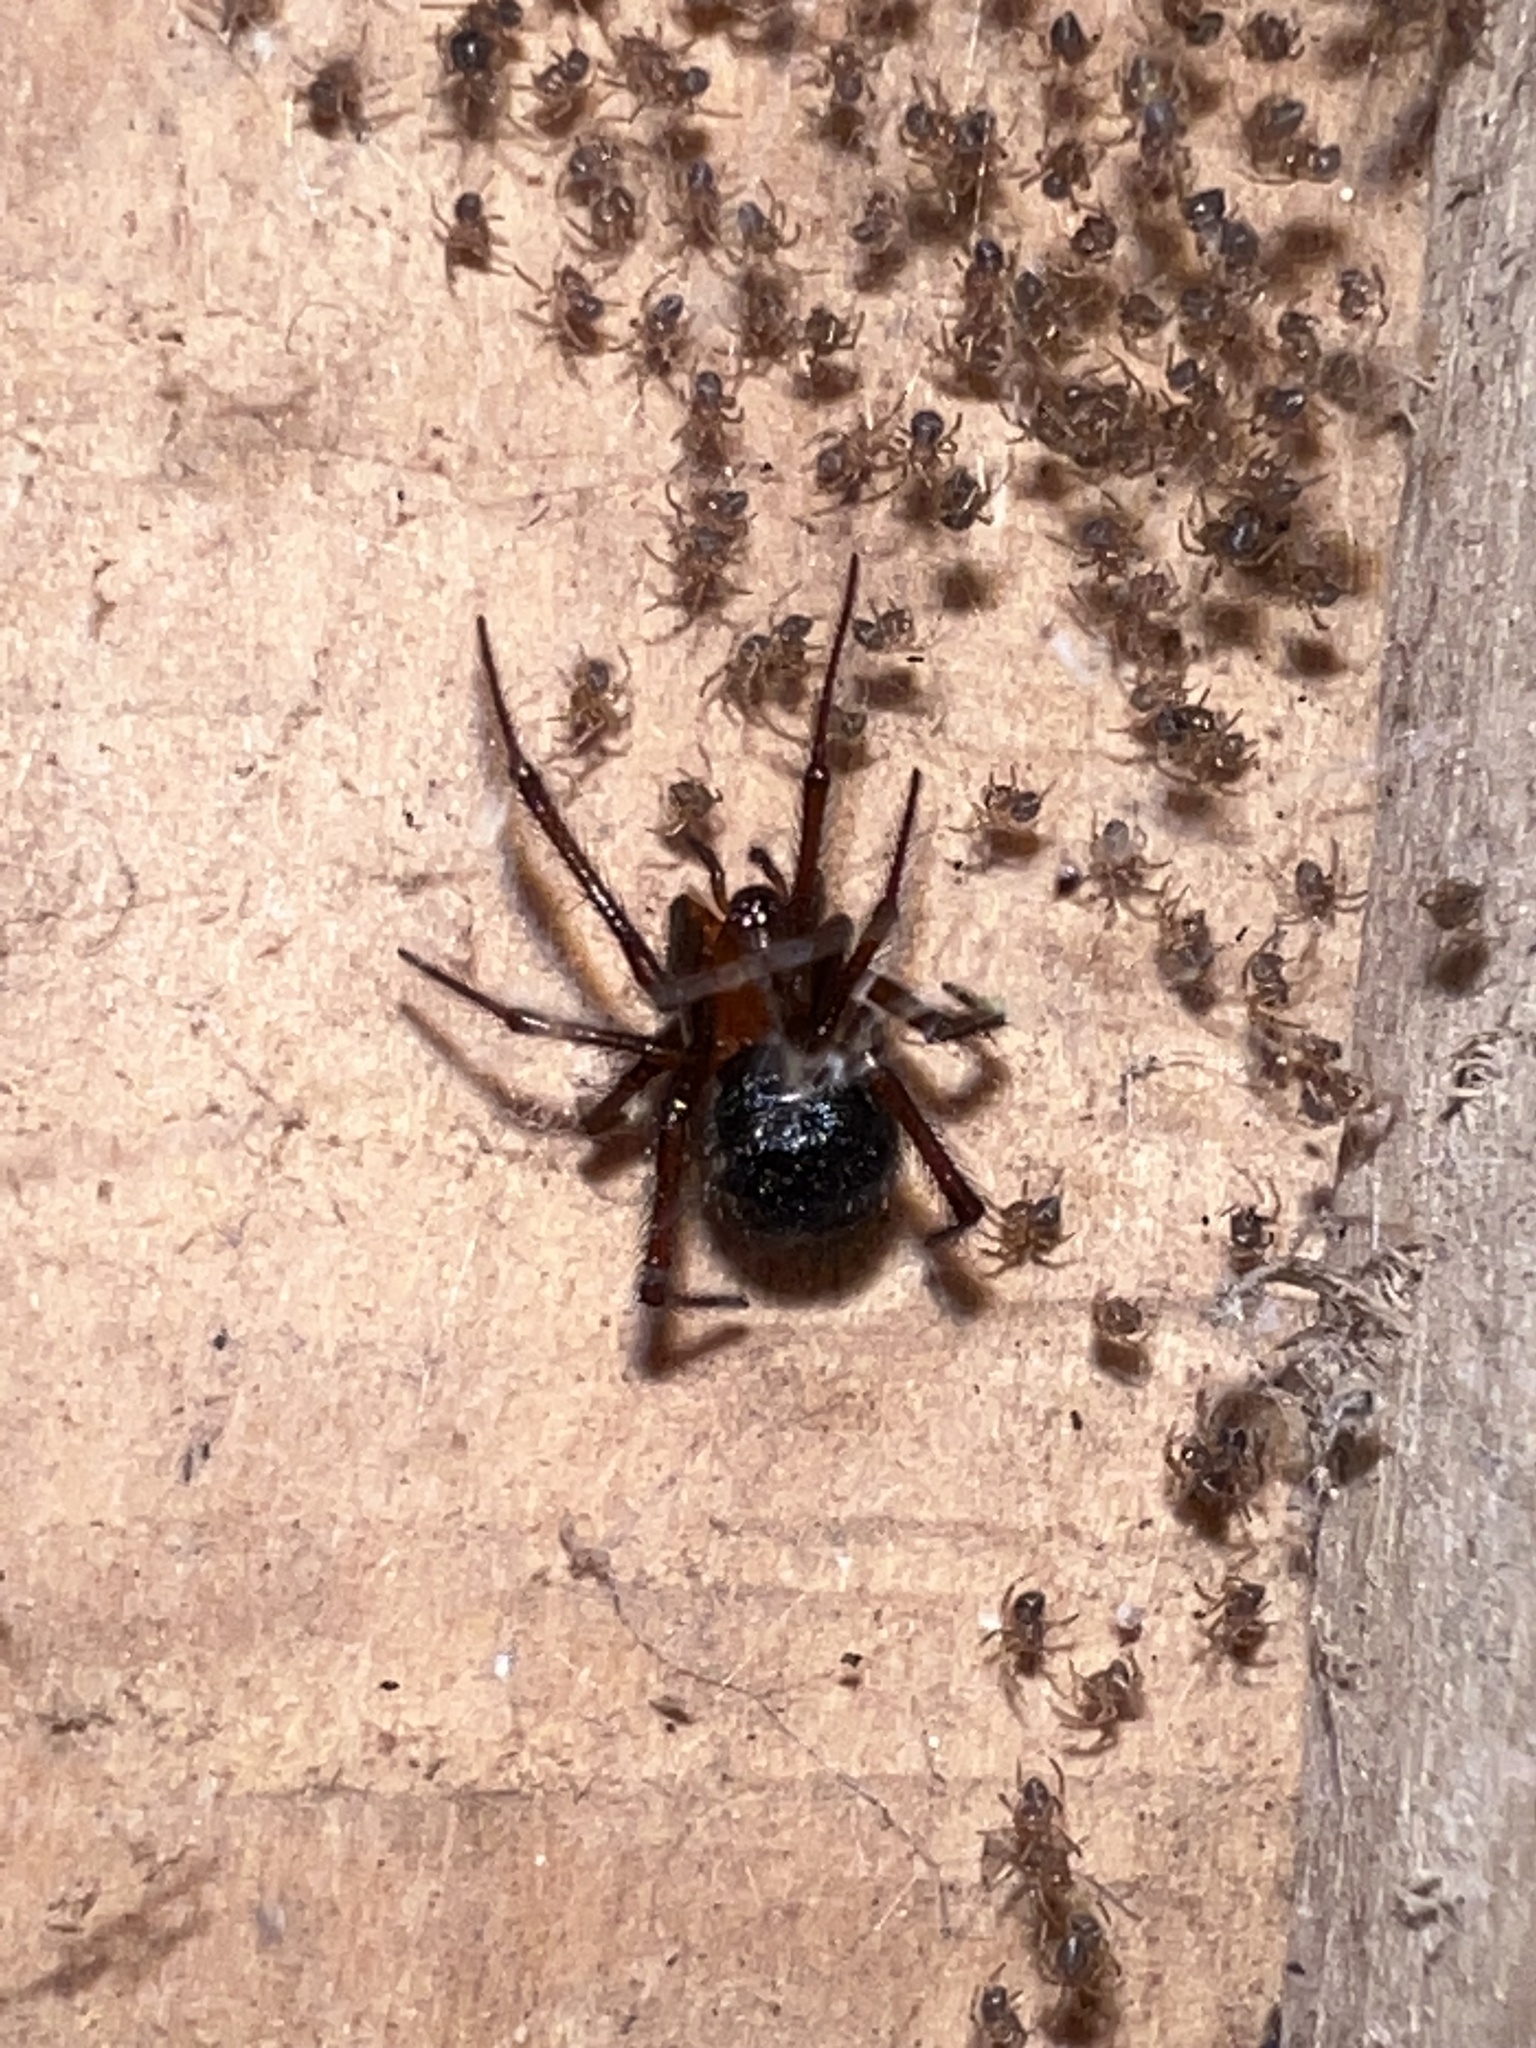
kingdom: Animalia
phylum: Arthropoda
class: Arachnida
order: Araneae
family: Theridiidae
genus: Nesticodes
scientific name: Nesticodes rufipes
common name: Cobweb spiders
